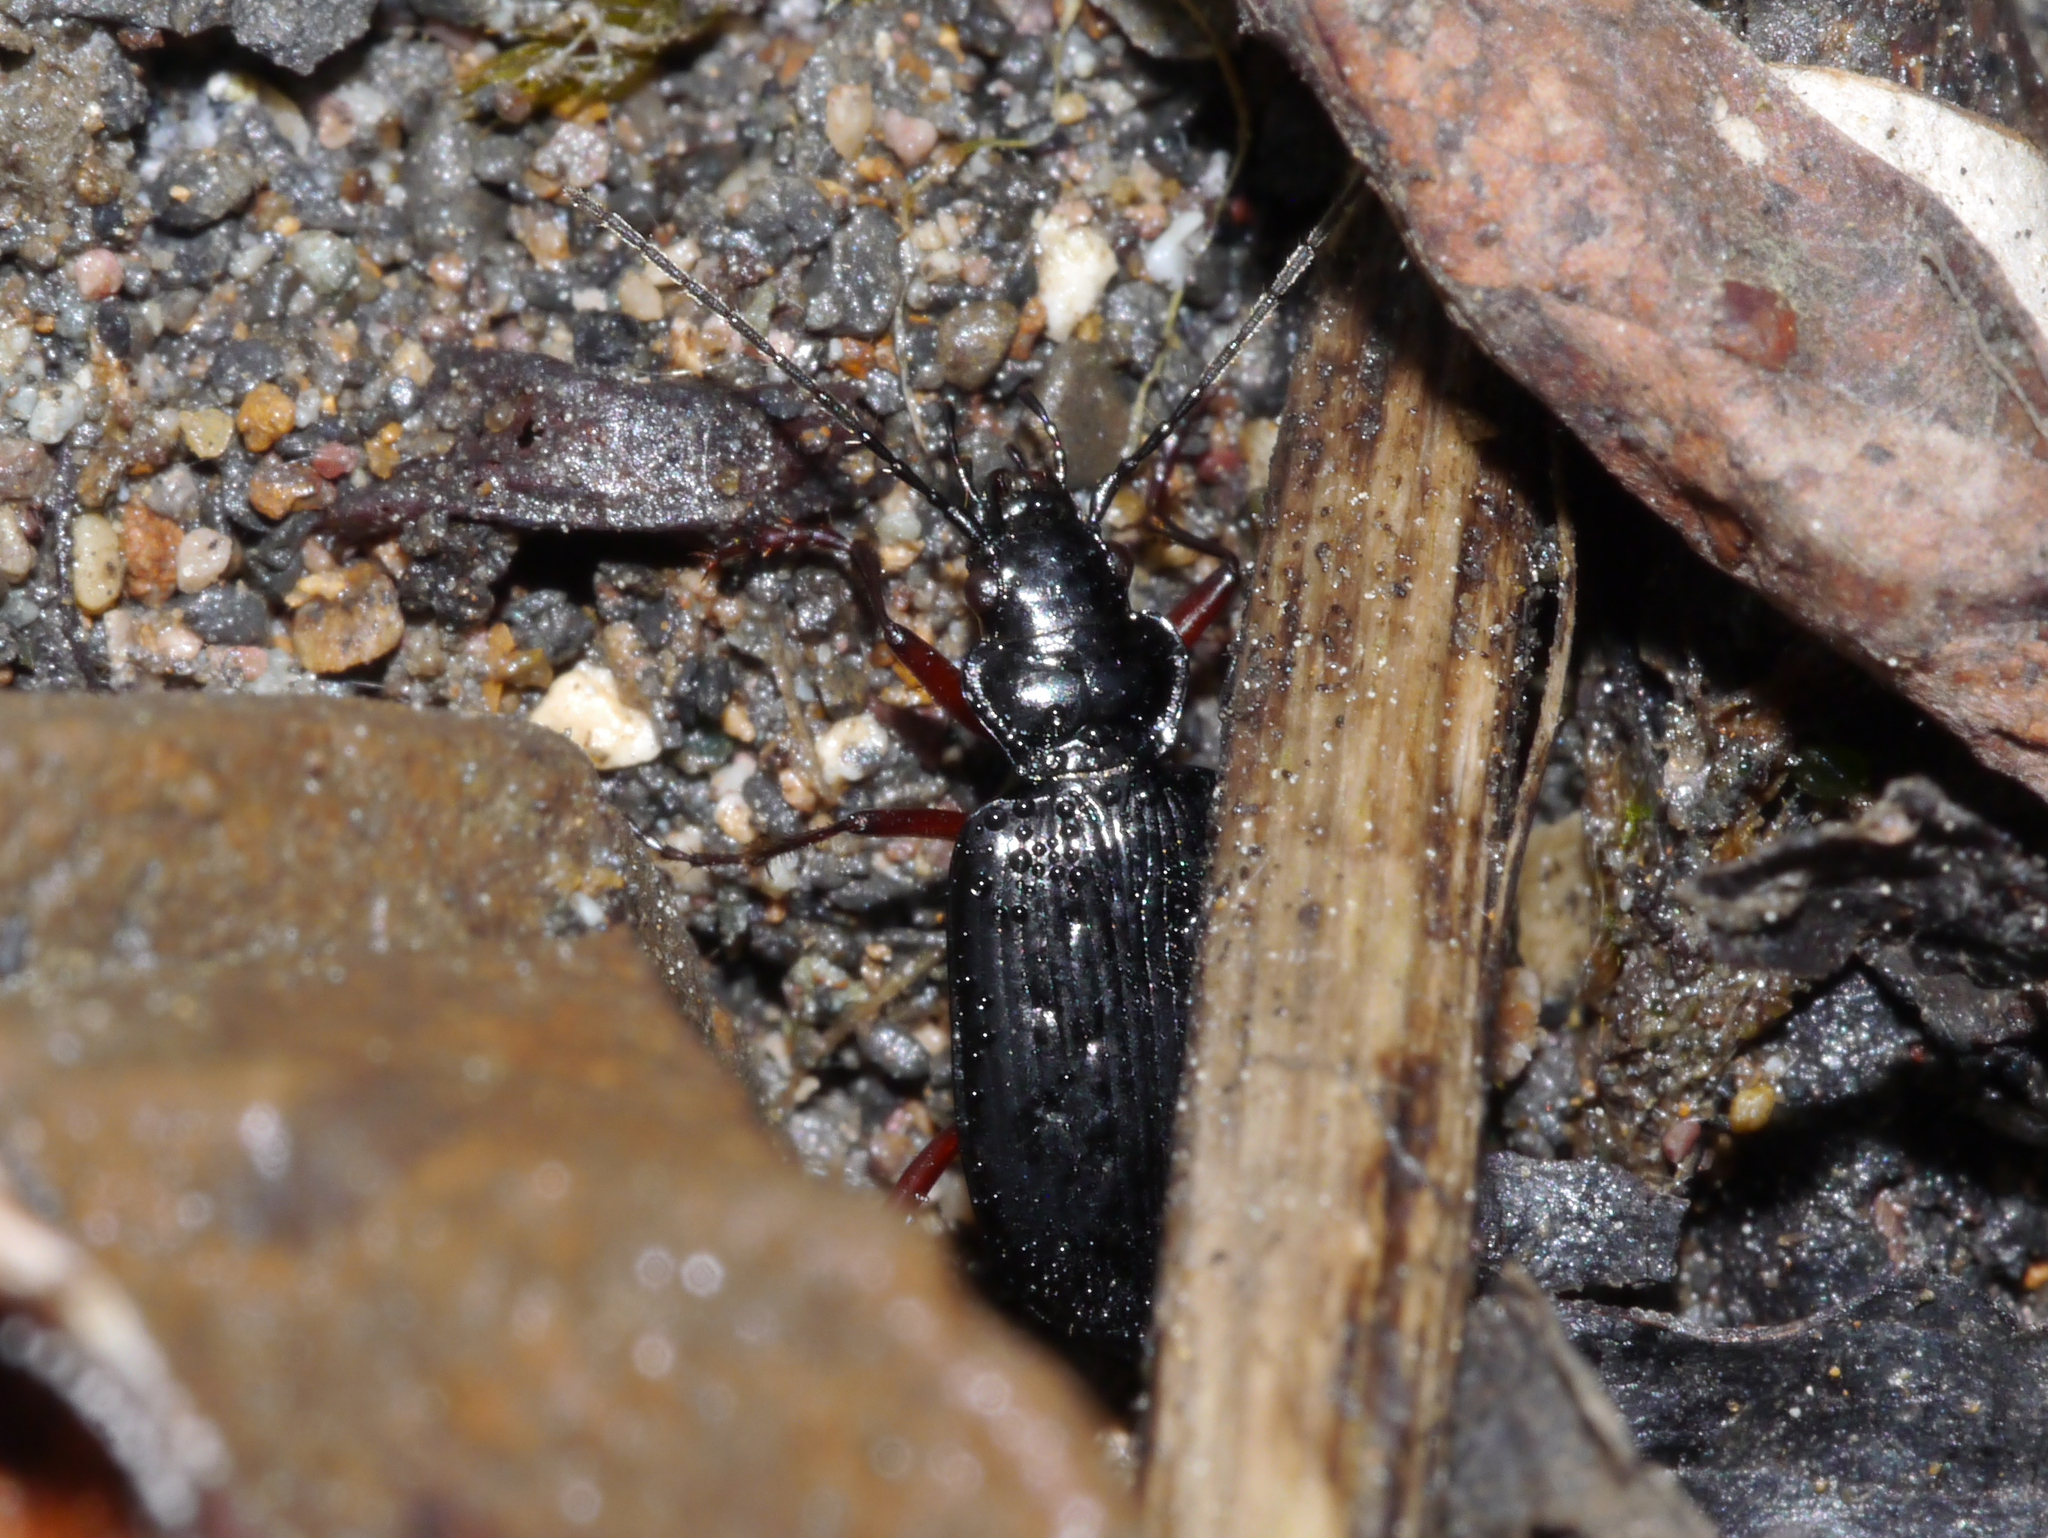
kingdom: Animalia
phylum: Arthropoda
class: Insecta
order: Coleoptera
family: Carabidae
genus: Nebria
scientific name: Nebria nivalis
